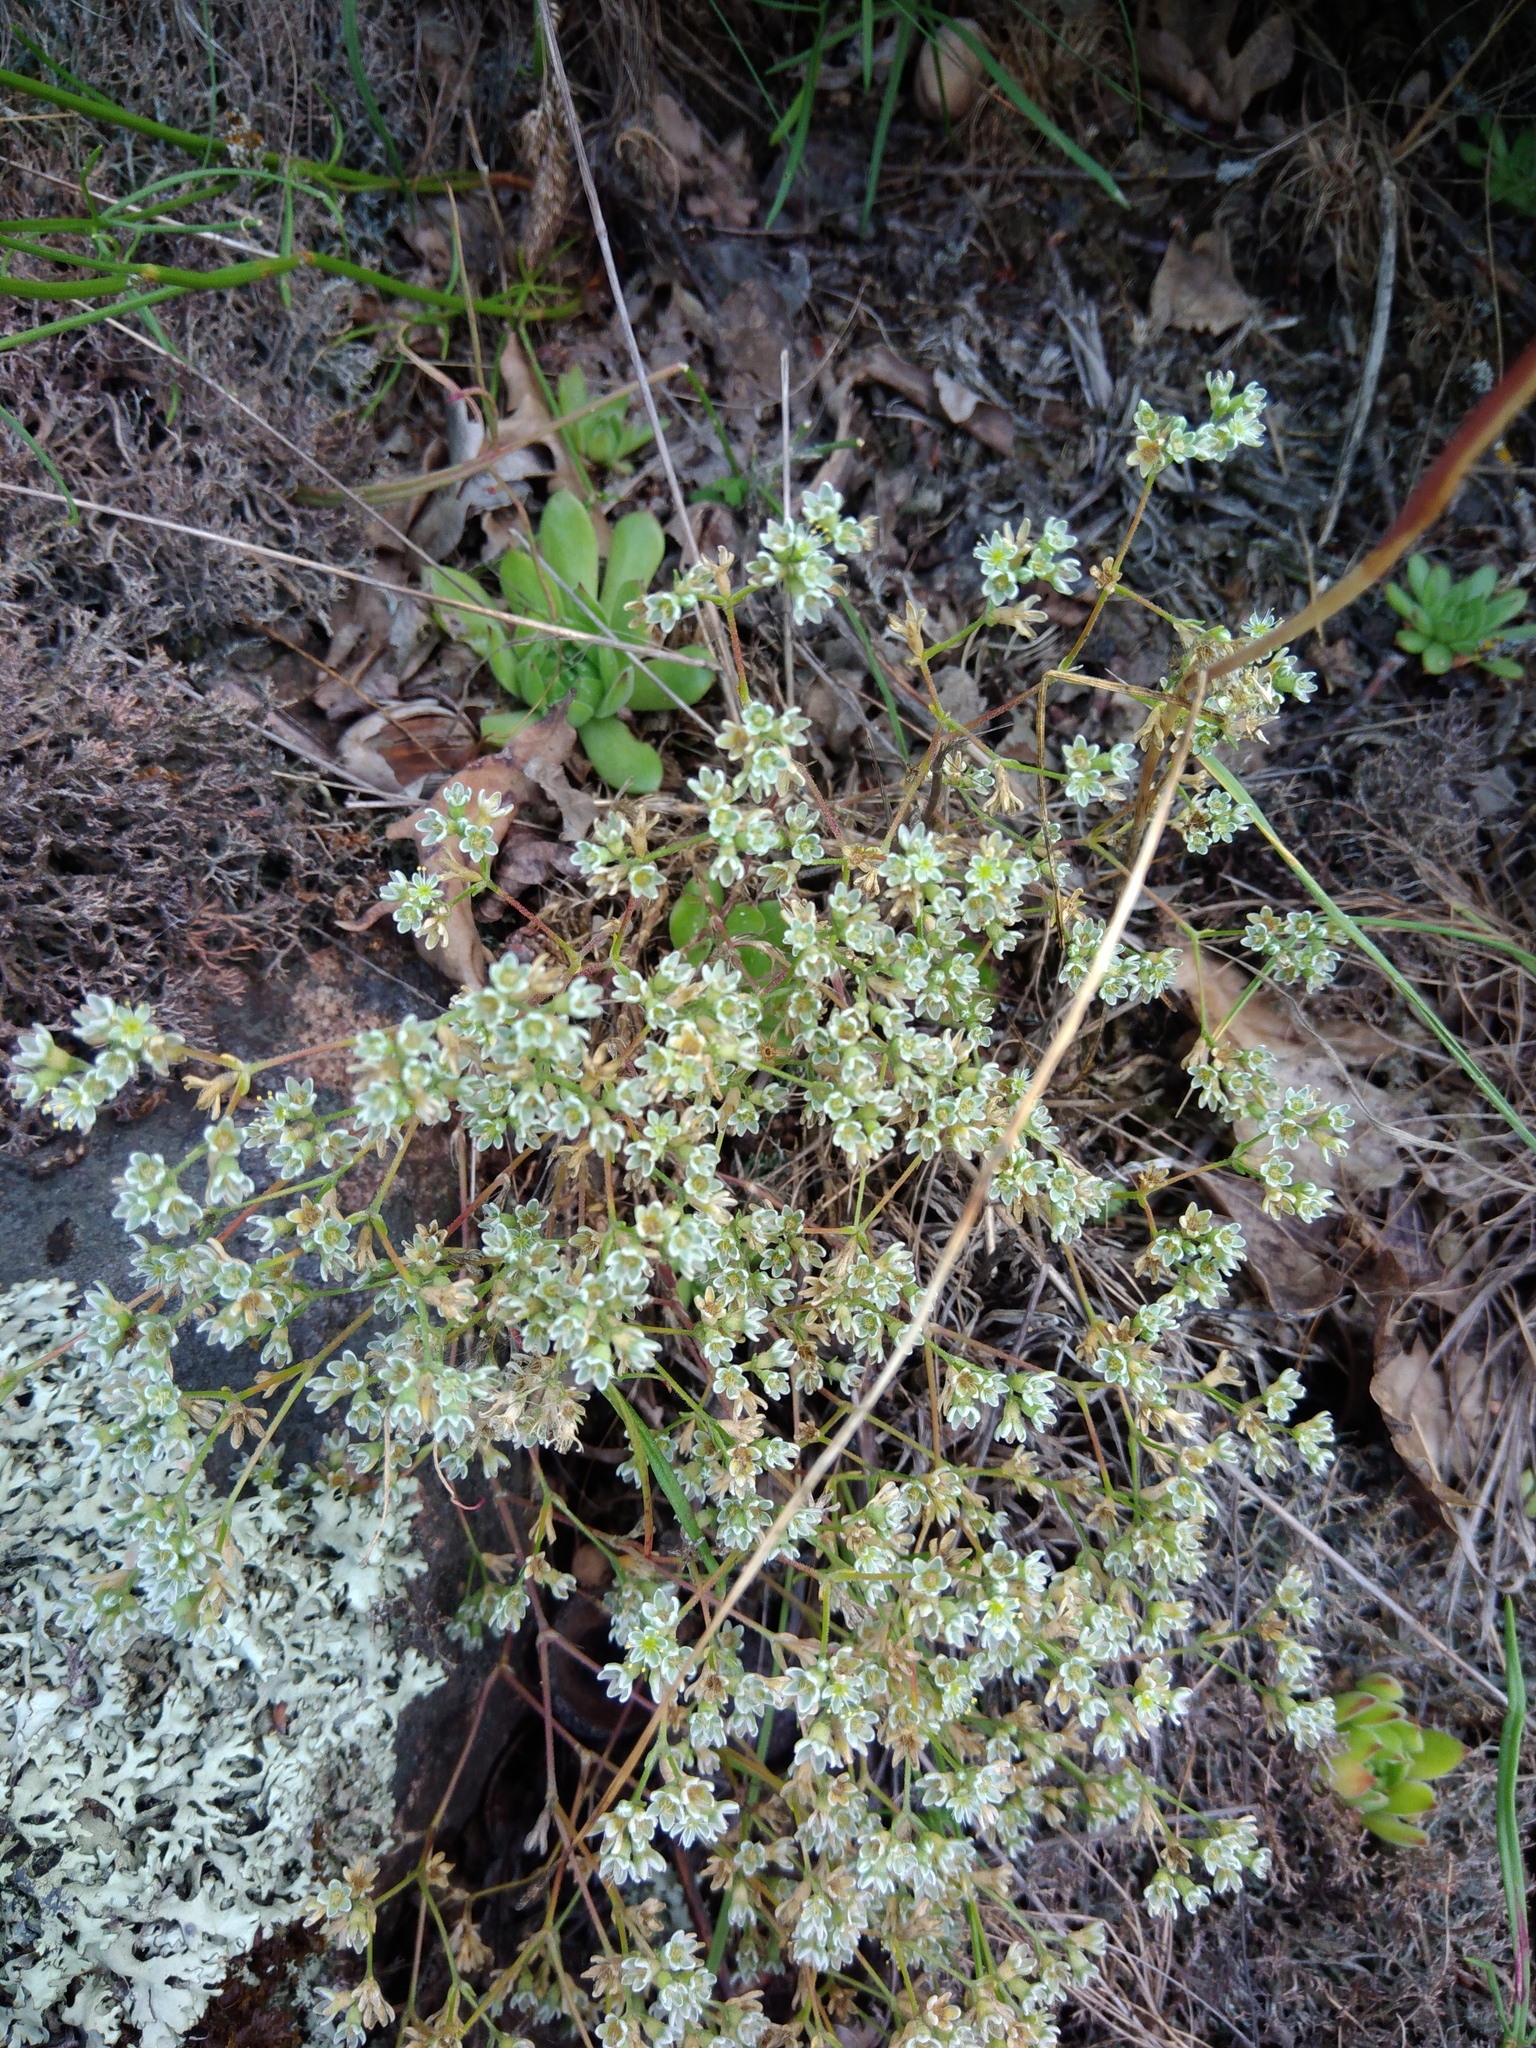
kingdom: Plantae
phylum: Tracheophyta
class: Magnoliopsida
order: Caryophyllales
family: Caryophyllaceae
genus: Scleranthus
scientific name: Scleranthus perennis
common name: Perennial knawel
